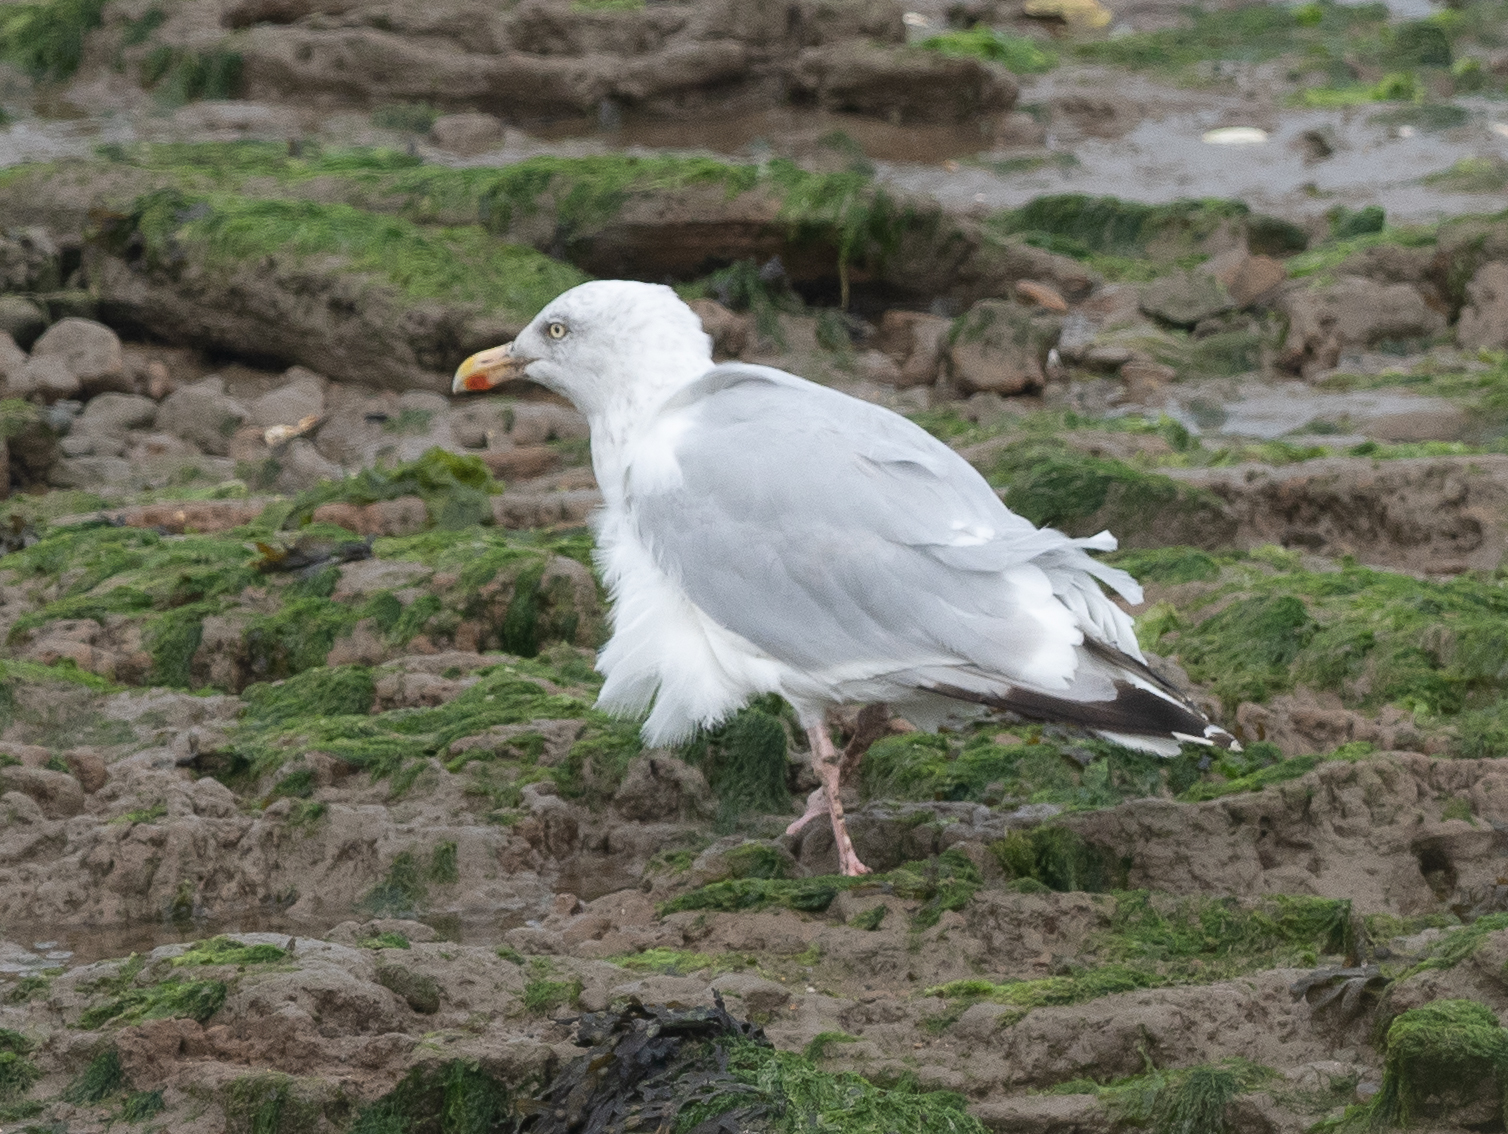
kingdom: Animalia
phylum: Chordata
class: Aves
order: Charadriiformes
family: Laridae
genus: Larus
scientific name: Larus argentatus
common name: Herring gull
